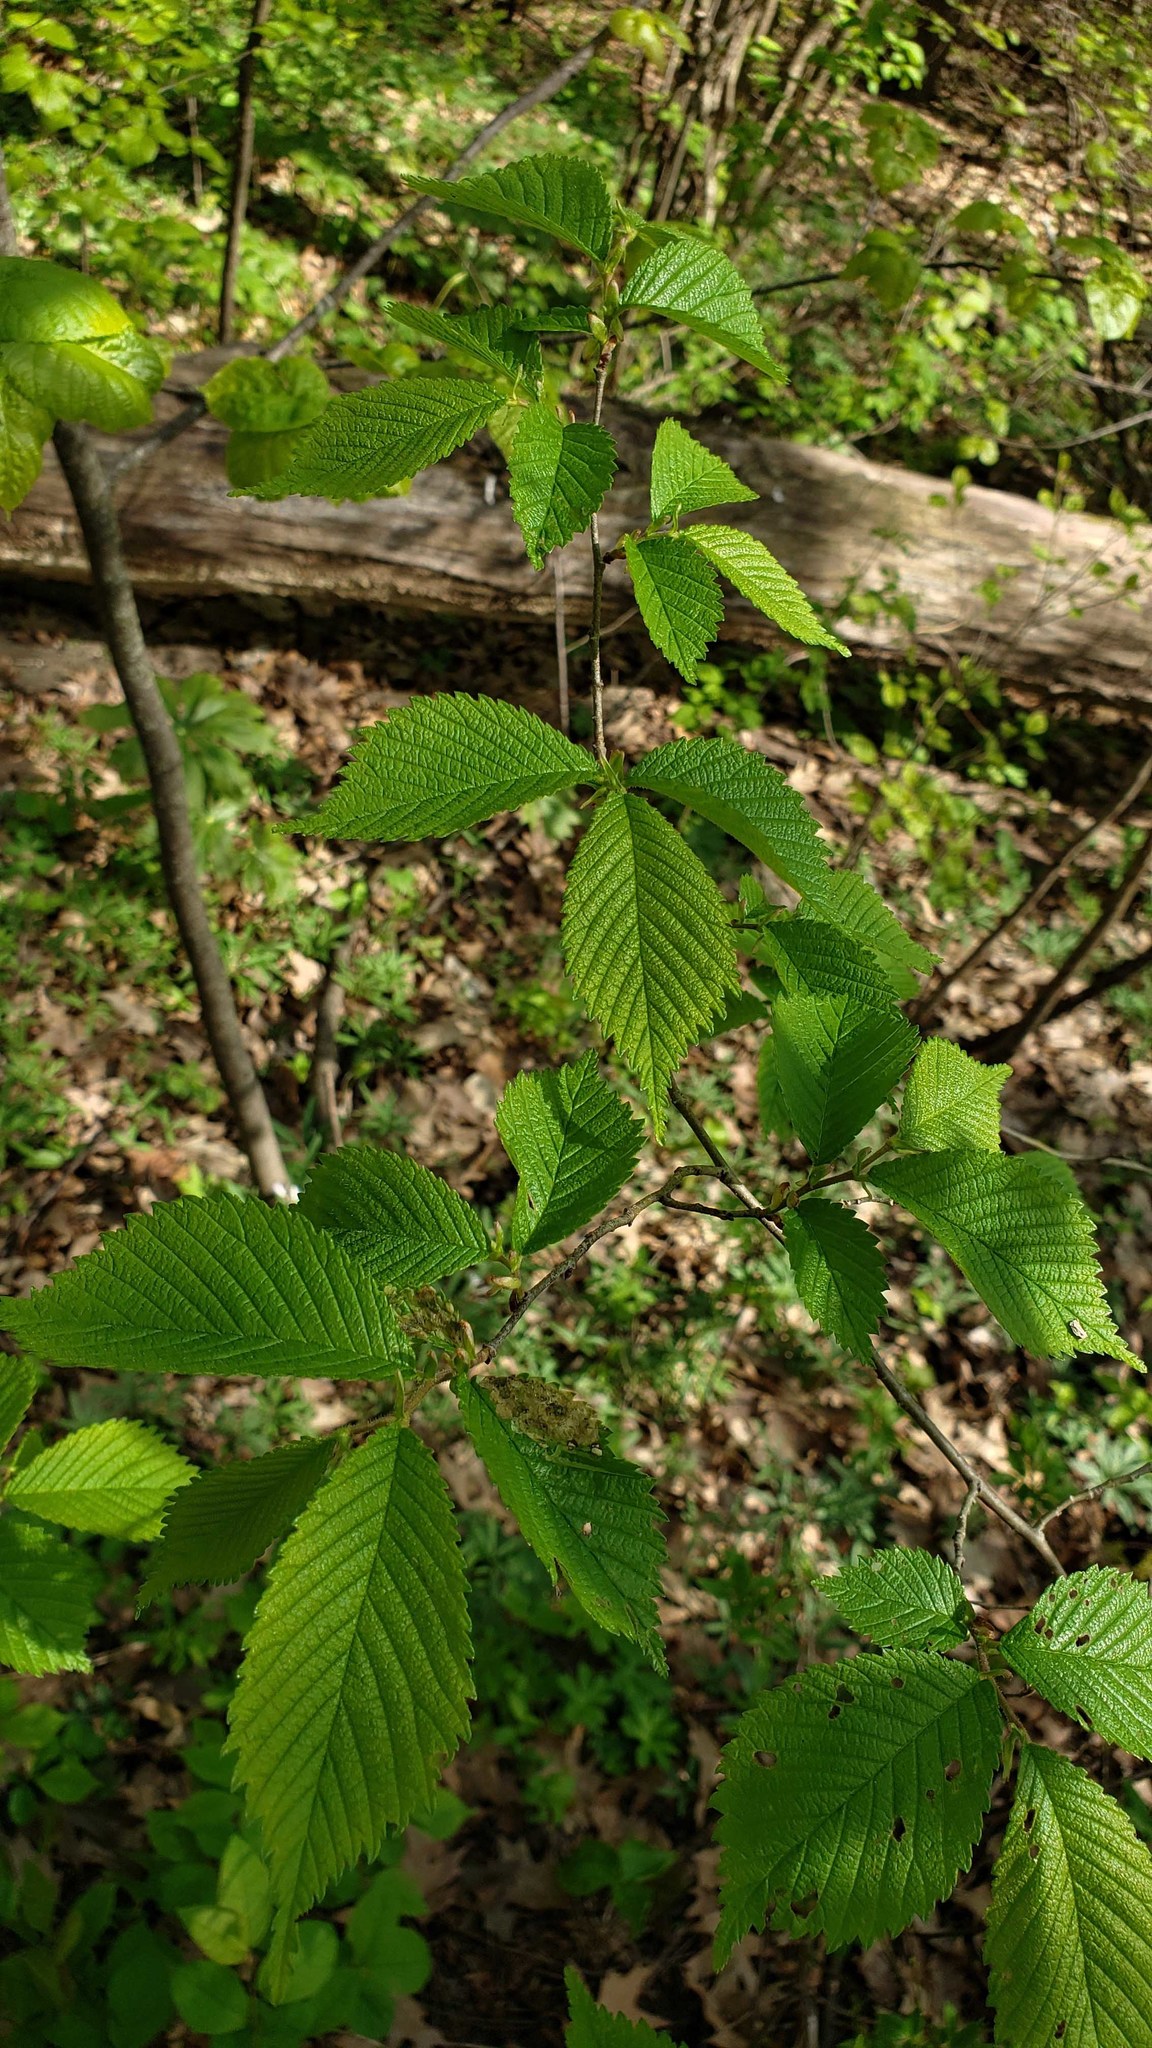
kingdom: Plantae
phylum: Tracheophyta
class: Magnoliopsida
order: Rosales
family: Ulmaceae
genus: Ulmus
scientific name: Ulmus rubra
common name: Slippery elm
